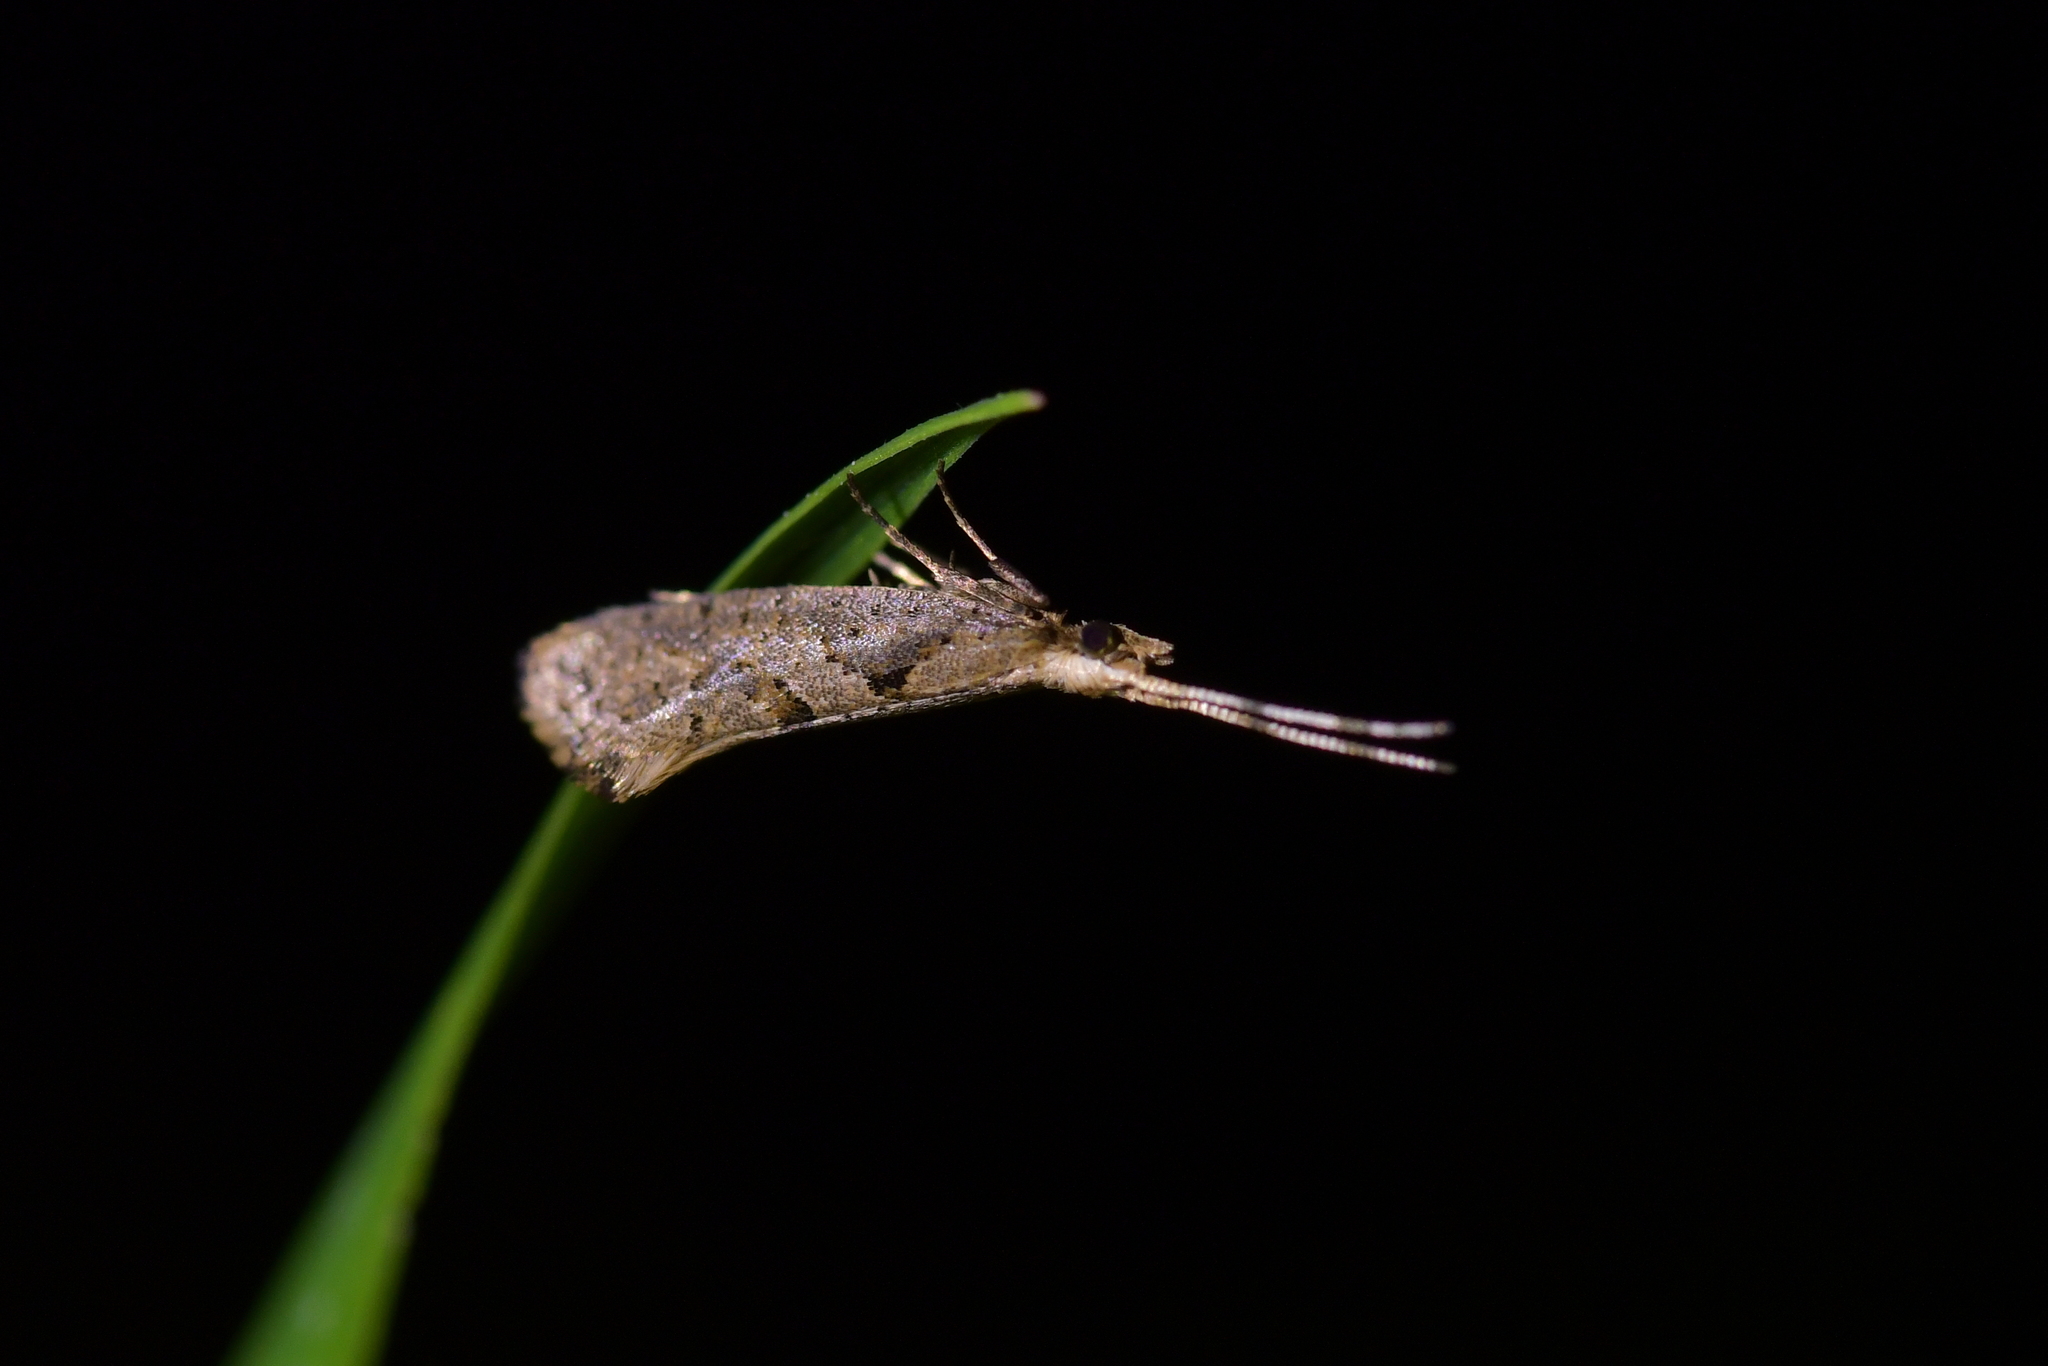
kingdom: Animalia
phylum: Arthropoda
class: Insecta
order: Lepidoptera
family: Plutellidae
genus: Leuroperna
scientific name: Leuroperna sera
